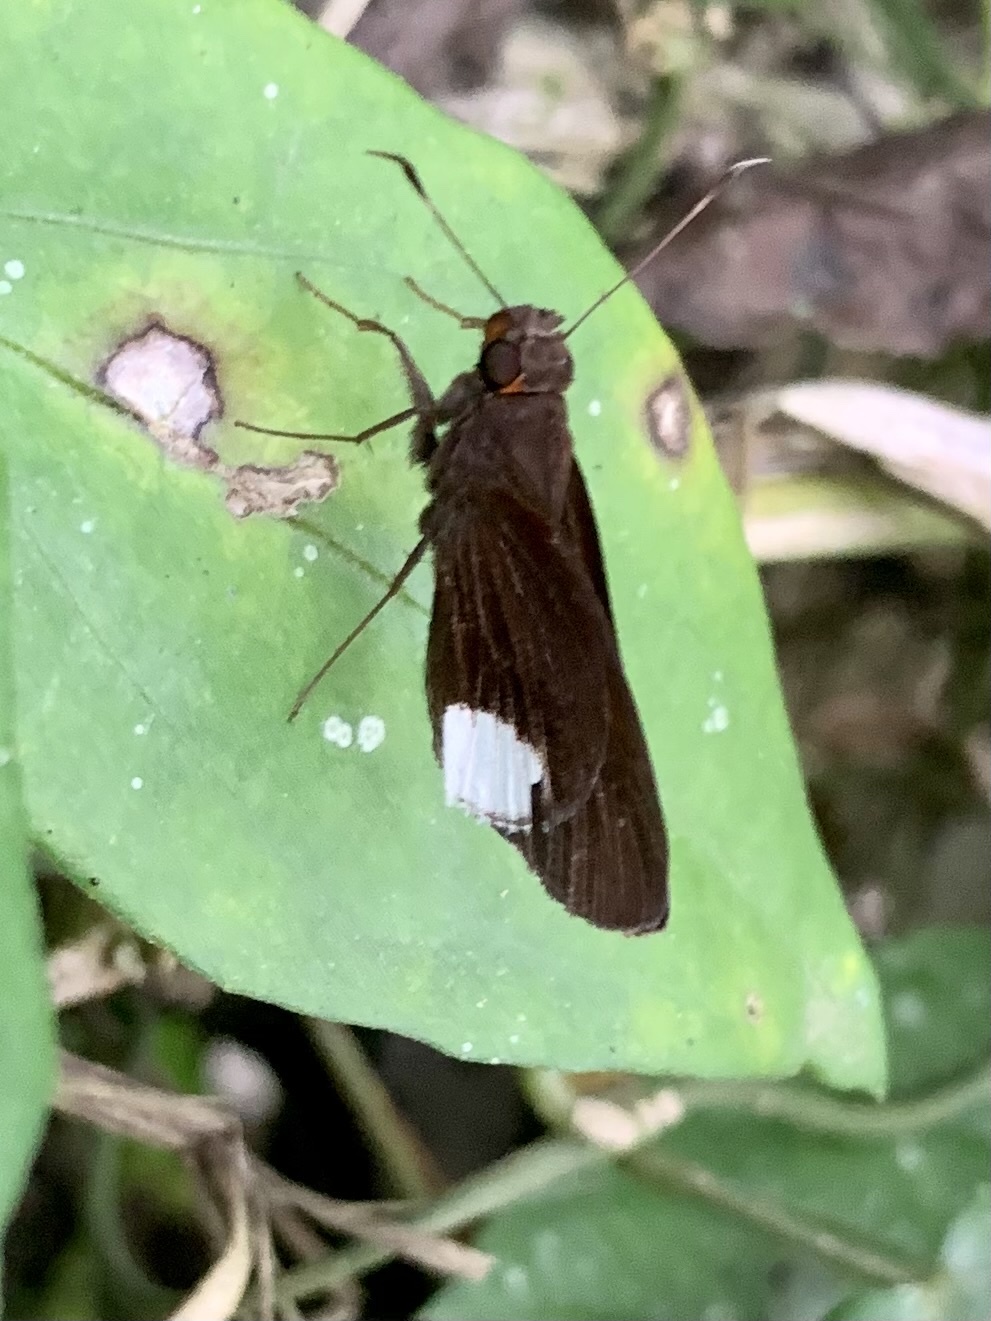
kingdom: Animalia
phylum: Arthropoda
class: Insecta
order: Lepidoptera
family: Hesperiidae
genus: Cobalus
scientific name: Cobalus virbius
